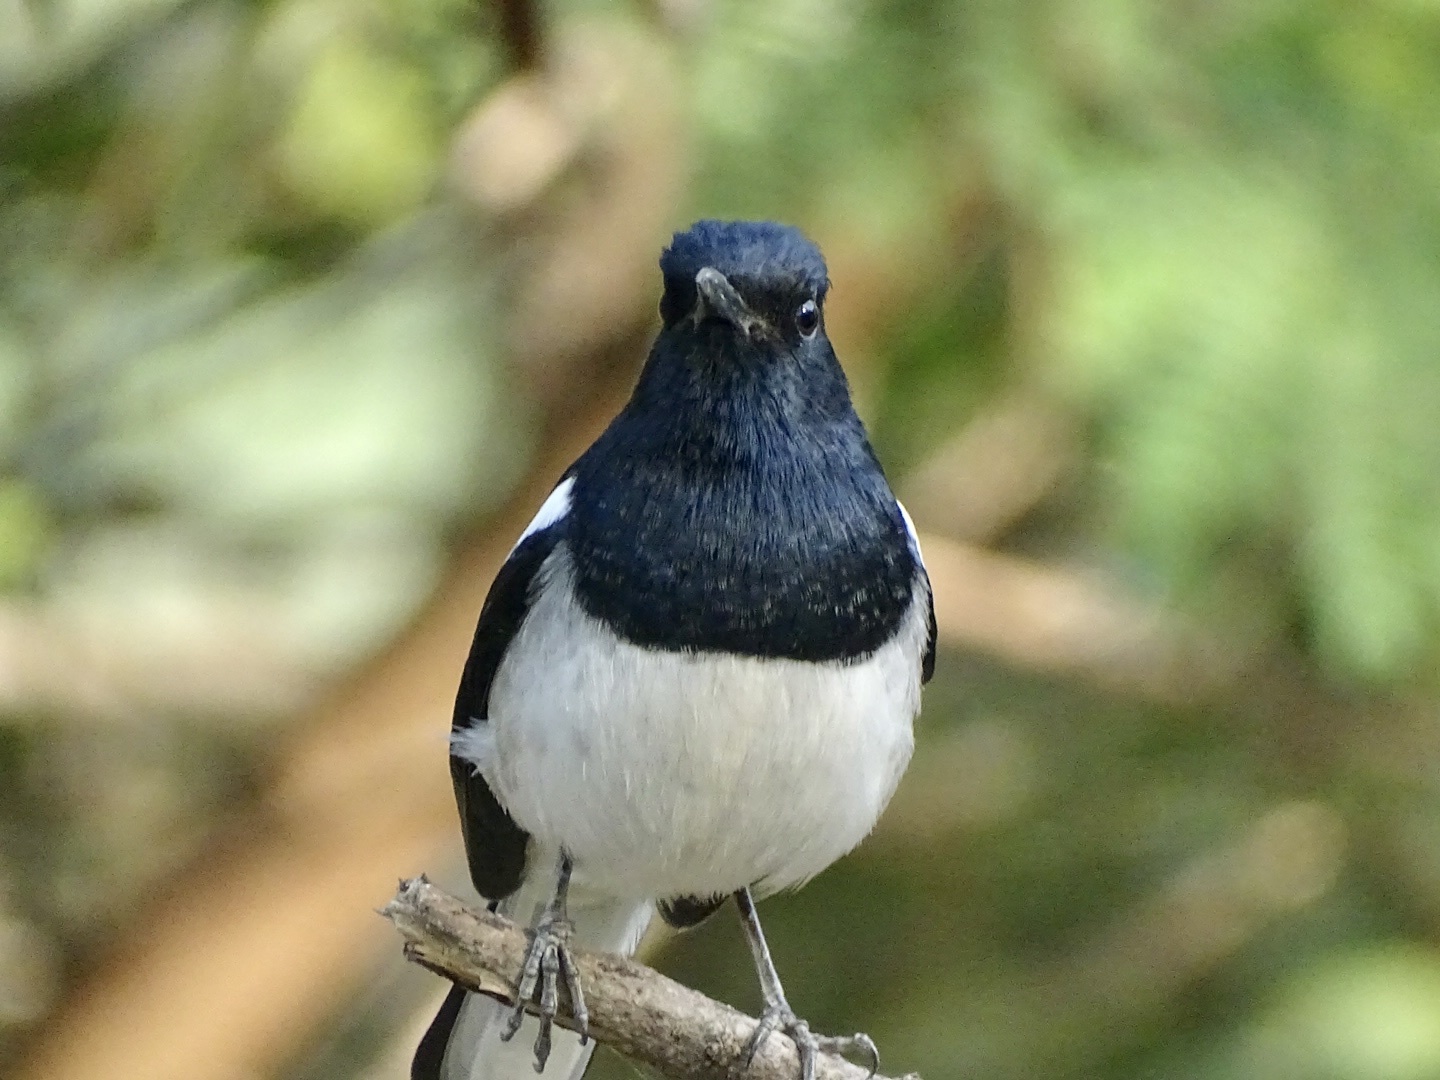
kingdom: Animalia
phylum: Chordata
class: Aves
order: Passeriformes
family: Muscicapidae
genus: Copsychus
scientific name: Copsychus saularis
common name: Oriental magpie-robin
